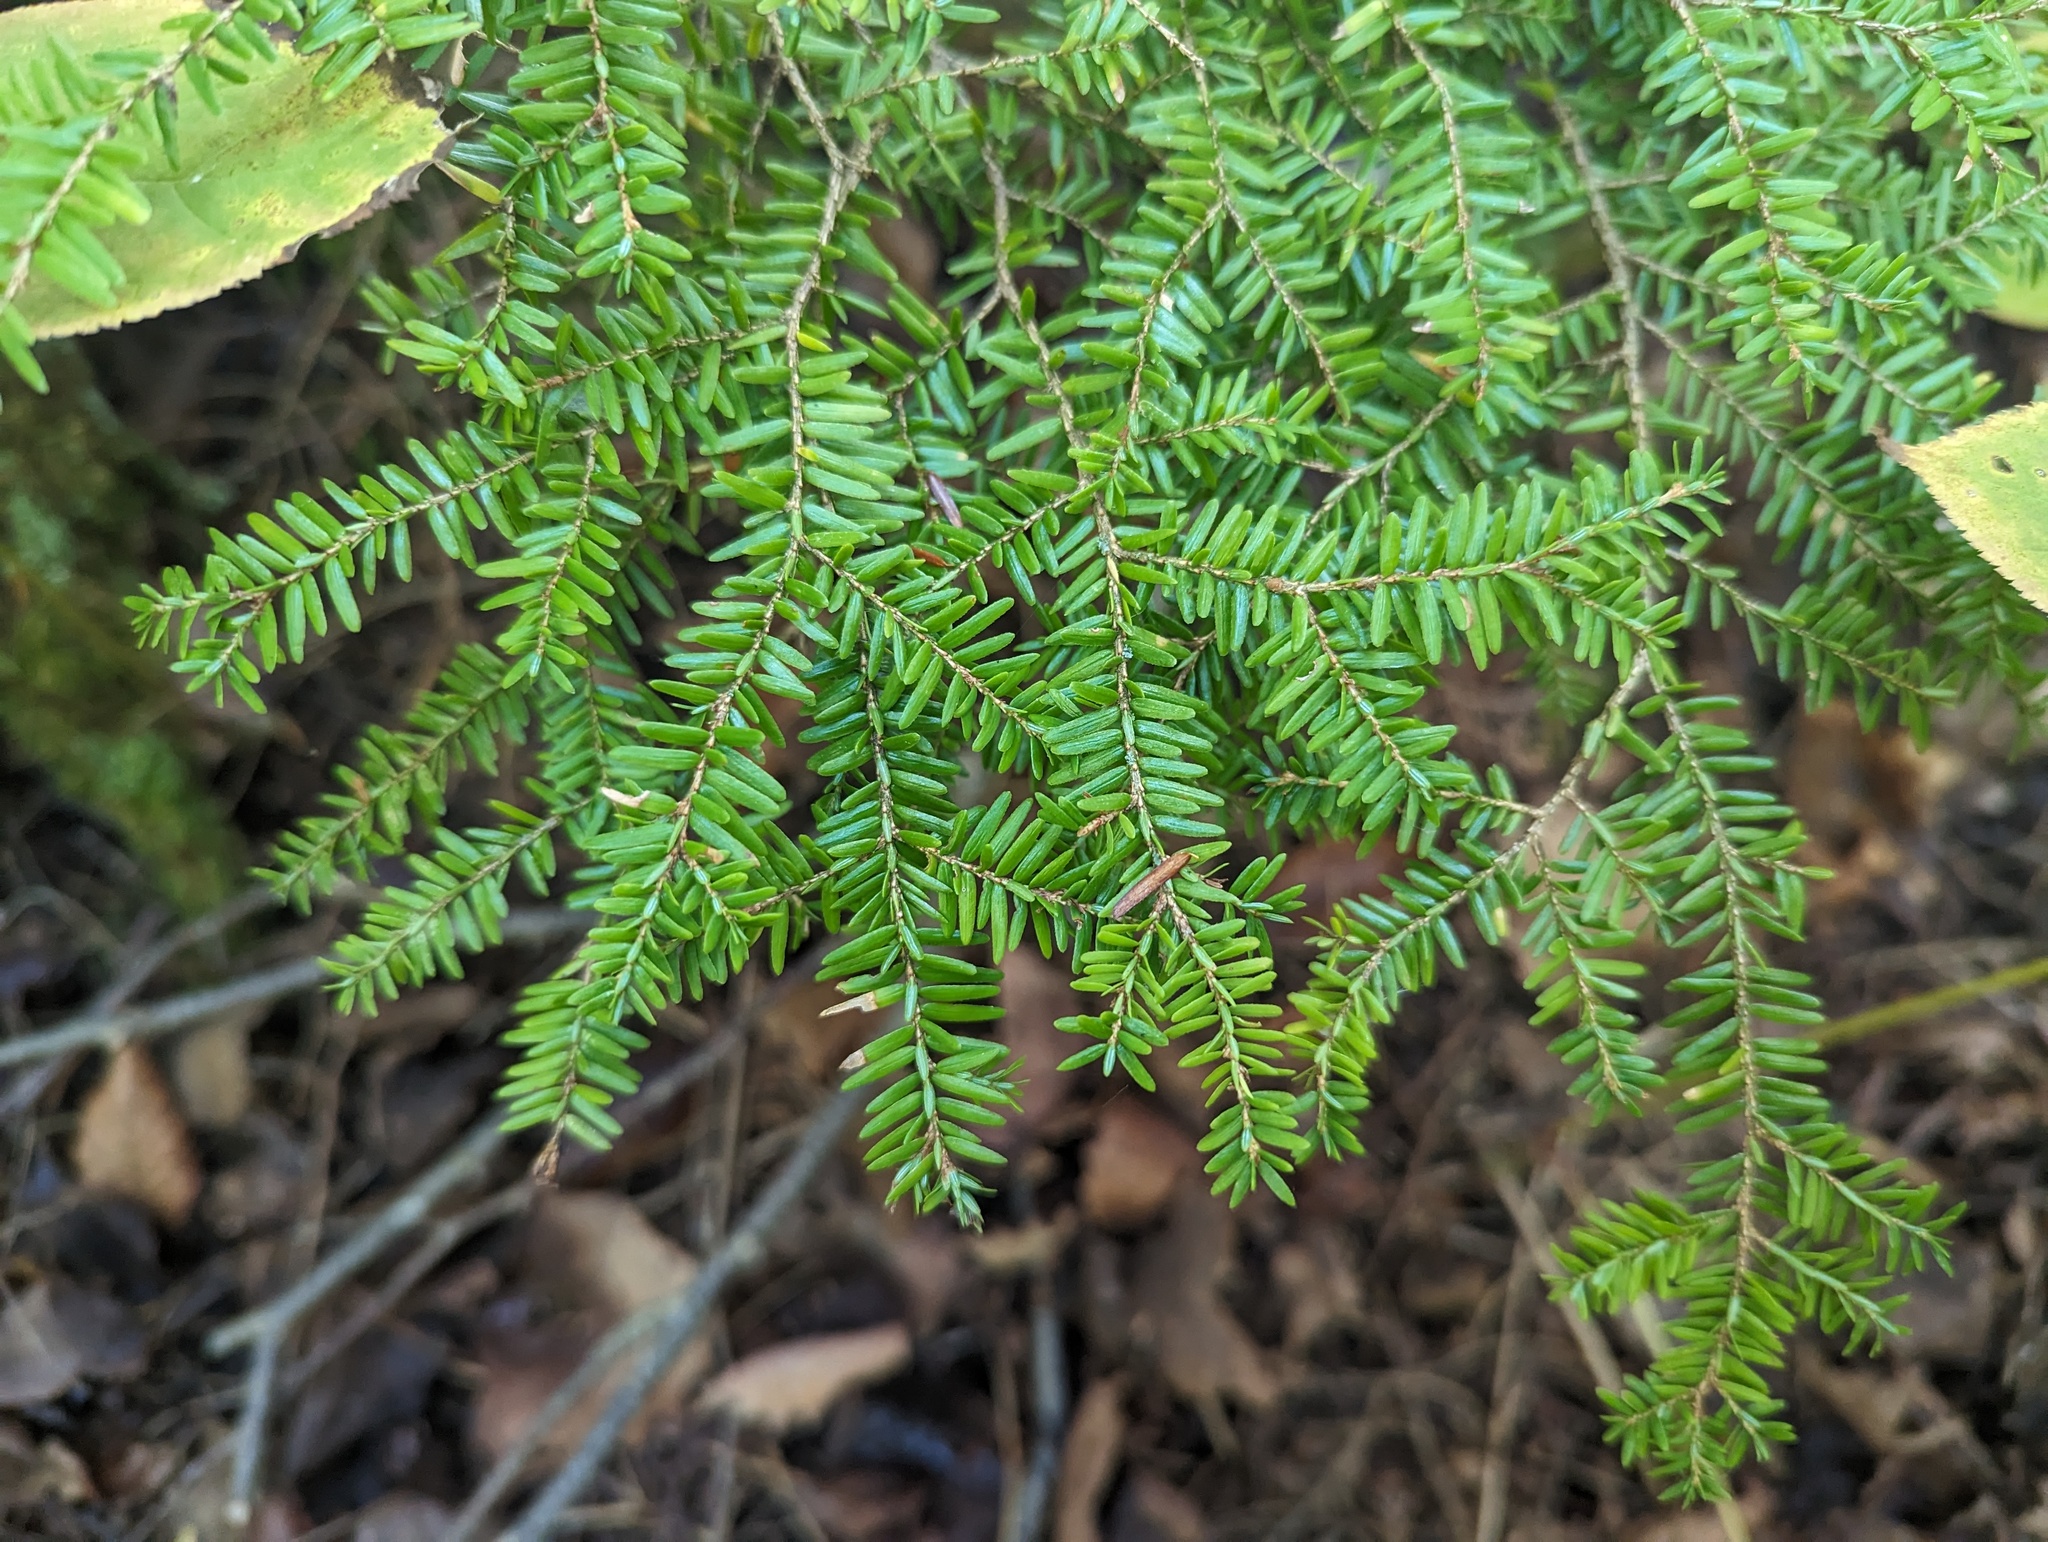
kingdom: Plantae
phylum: Tracheophyta
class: Pinopsida
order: Pinales
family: Pinaceae
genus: Tsuga
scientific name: Tsuga canadensis
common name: Eastern hemlock
